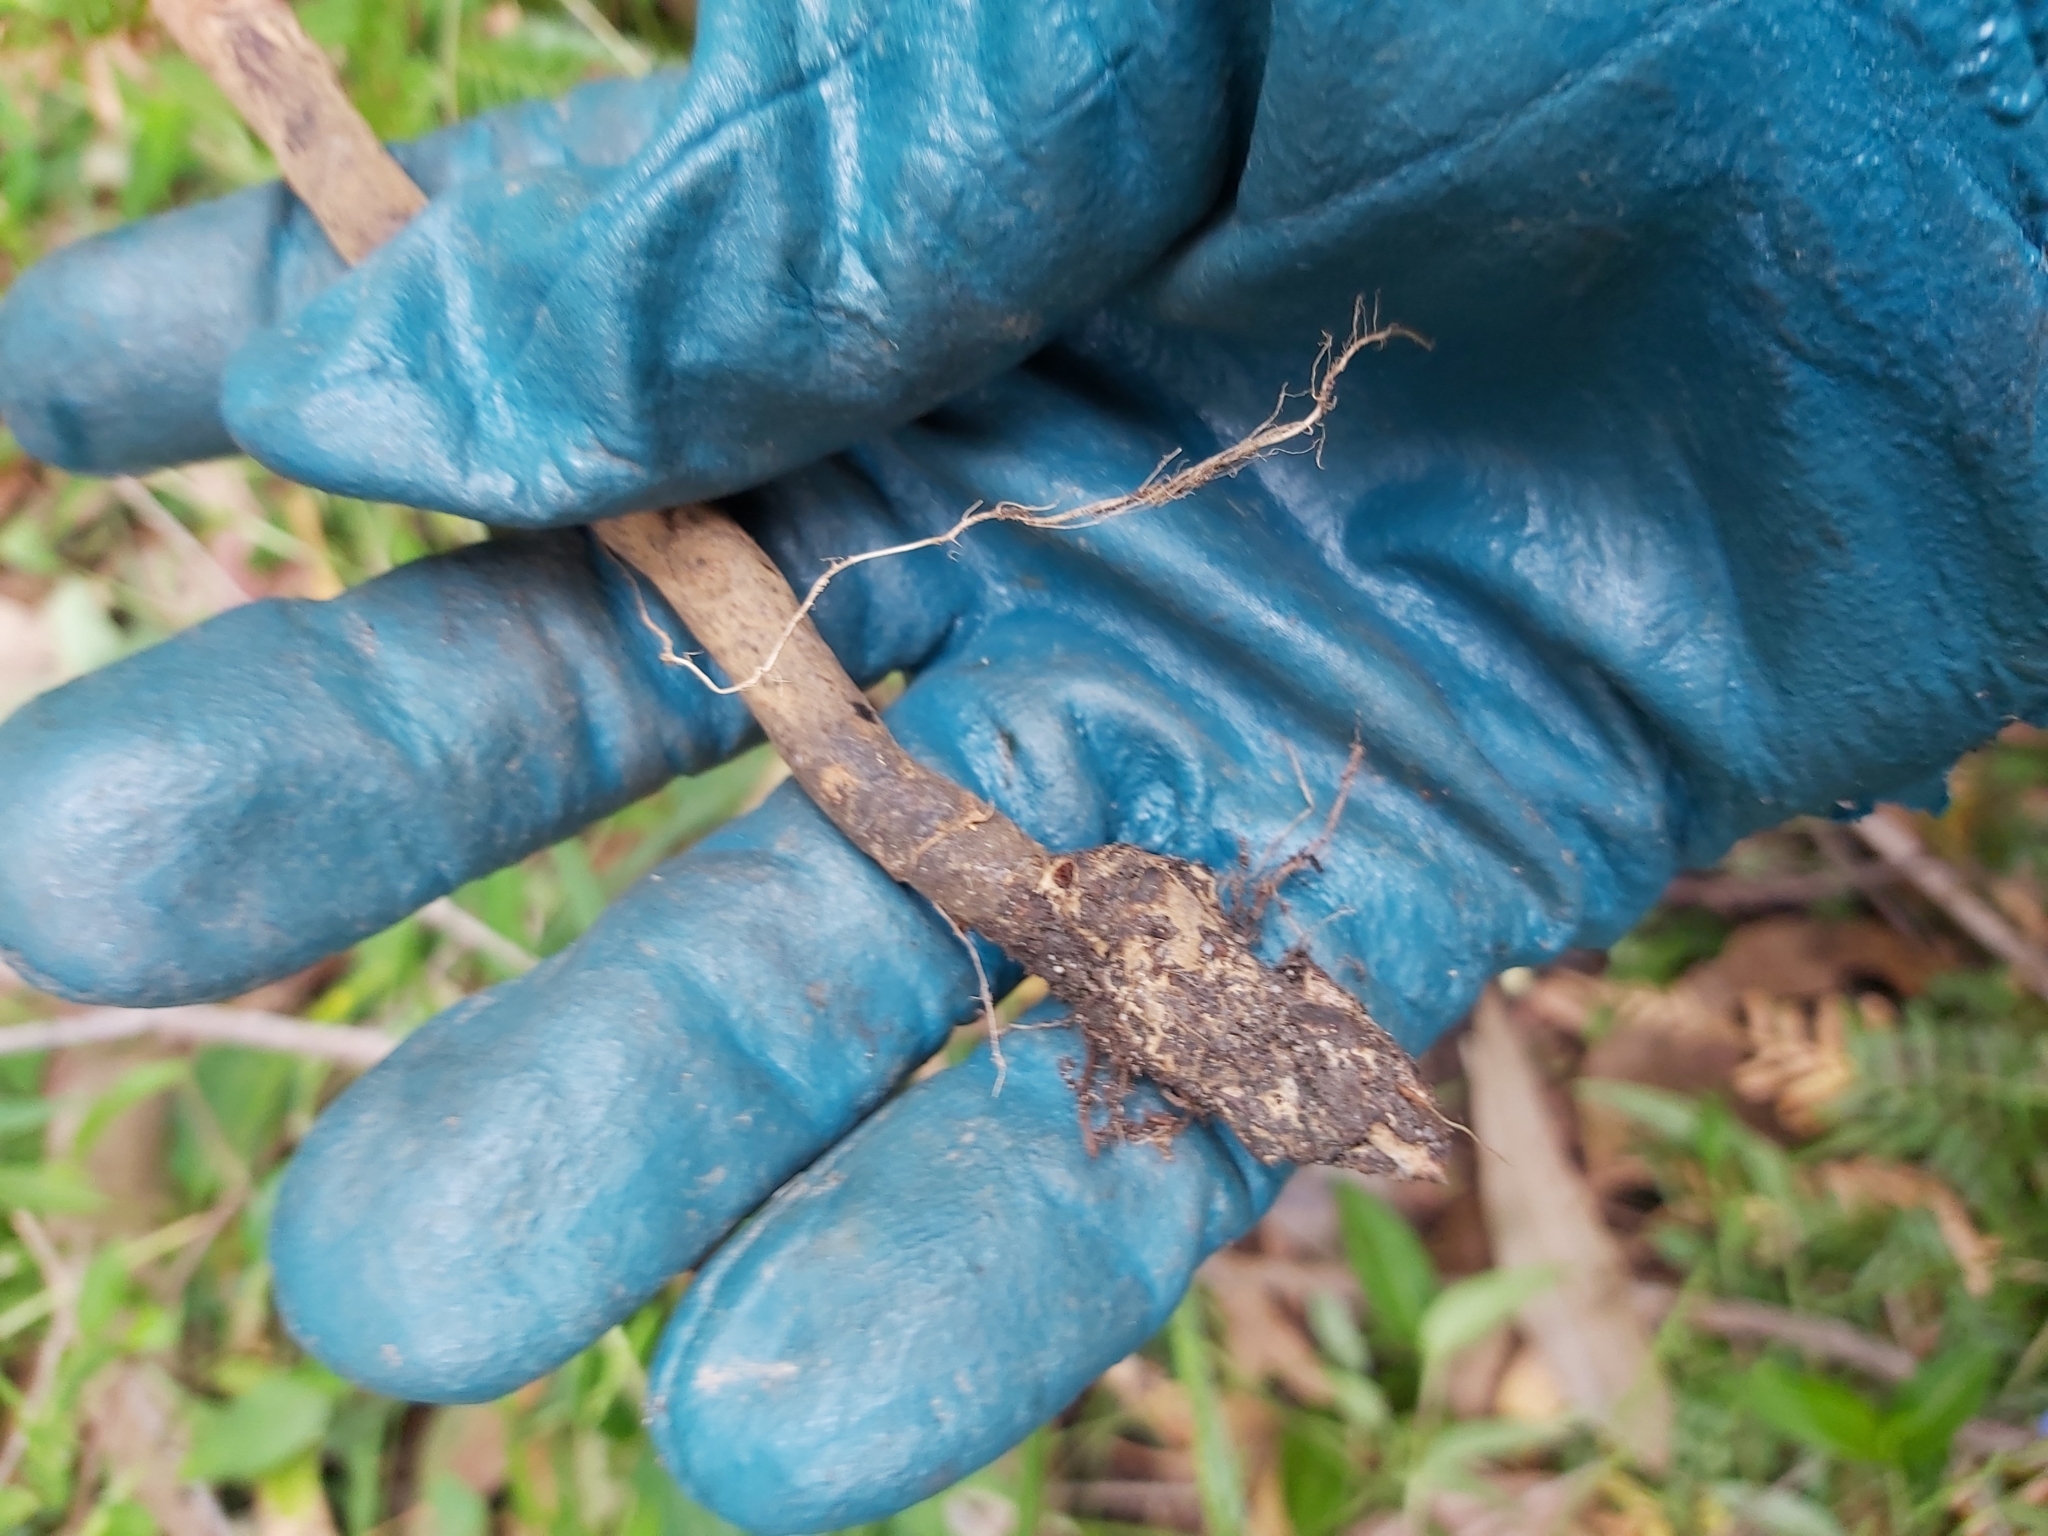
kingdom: Fungi
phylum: Basidiomycota
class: Agaricomycetes
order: Polyporales
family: Ganodermataceae
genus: Sanguinoderma
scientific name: Sanguinoderma rude
